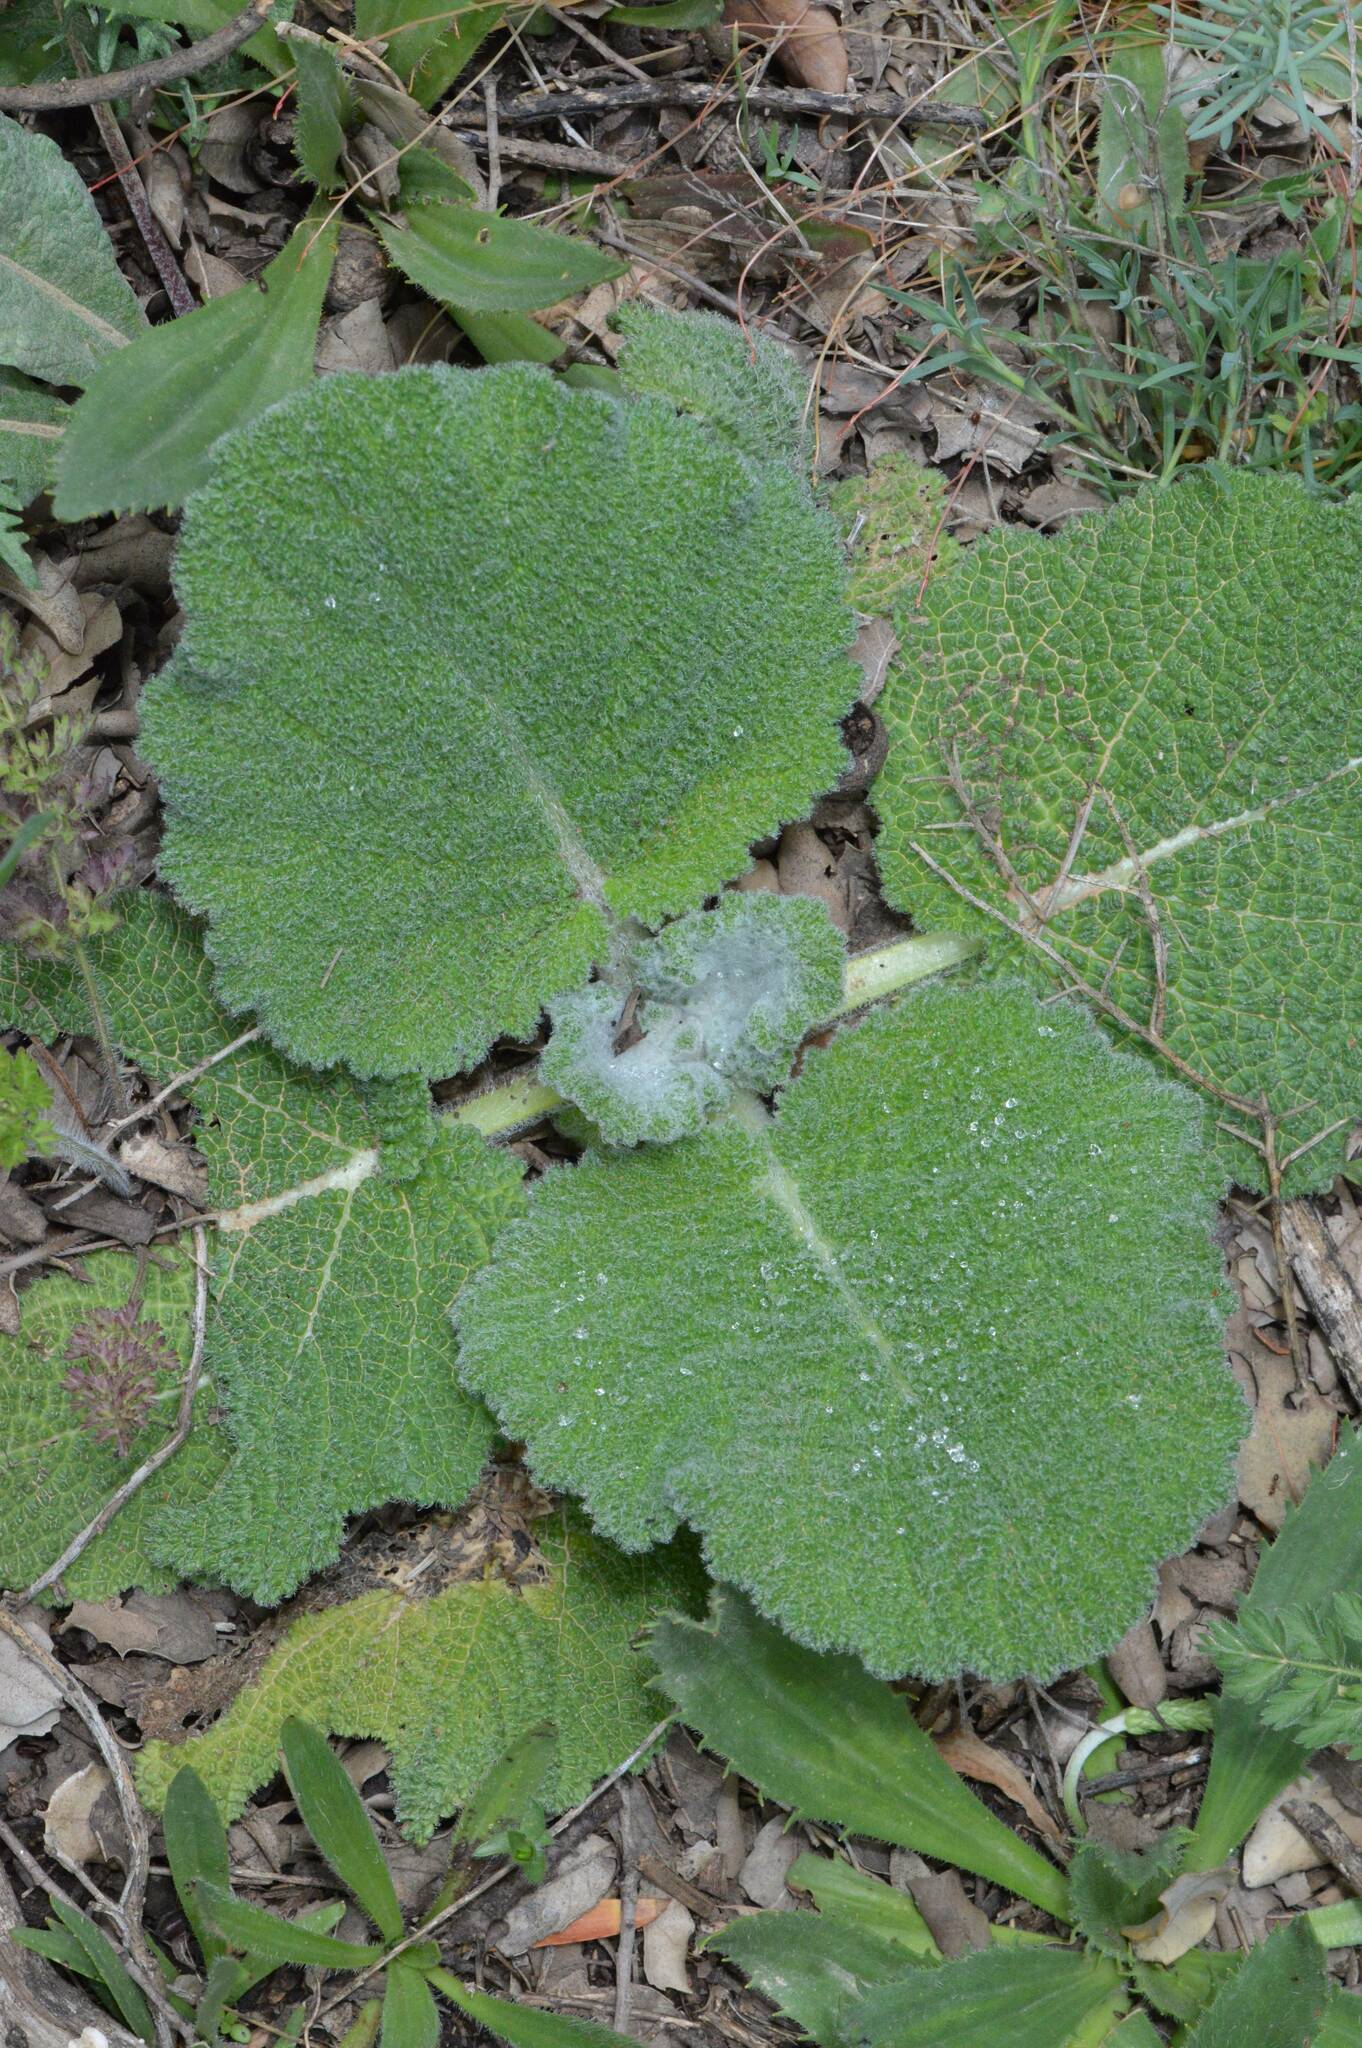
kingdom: Plantae
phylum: Tracheophyta
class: Magnoliopsida
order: Lamiales
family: Lamiaceae
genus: Salvia
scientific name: Salvia argentea
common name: Silver sage
